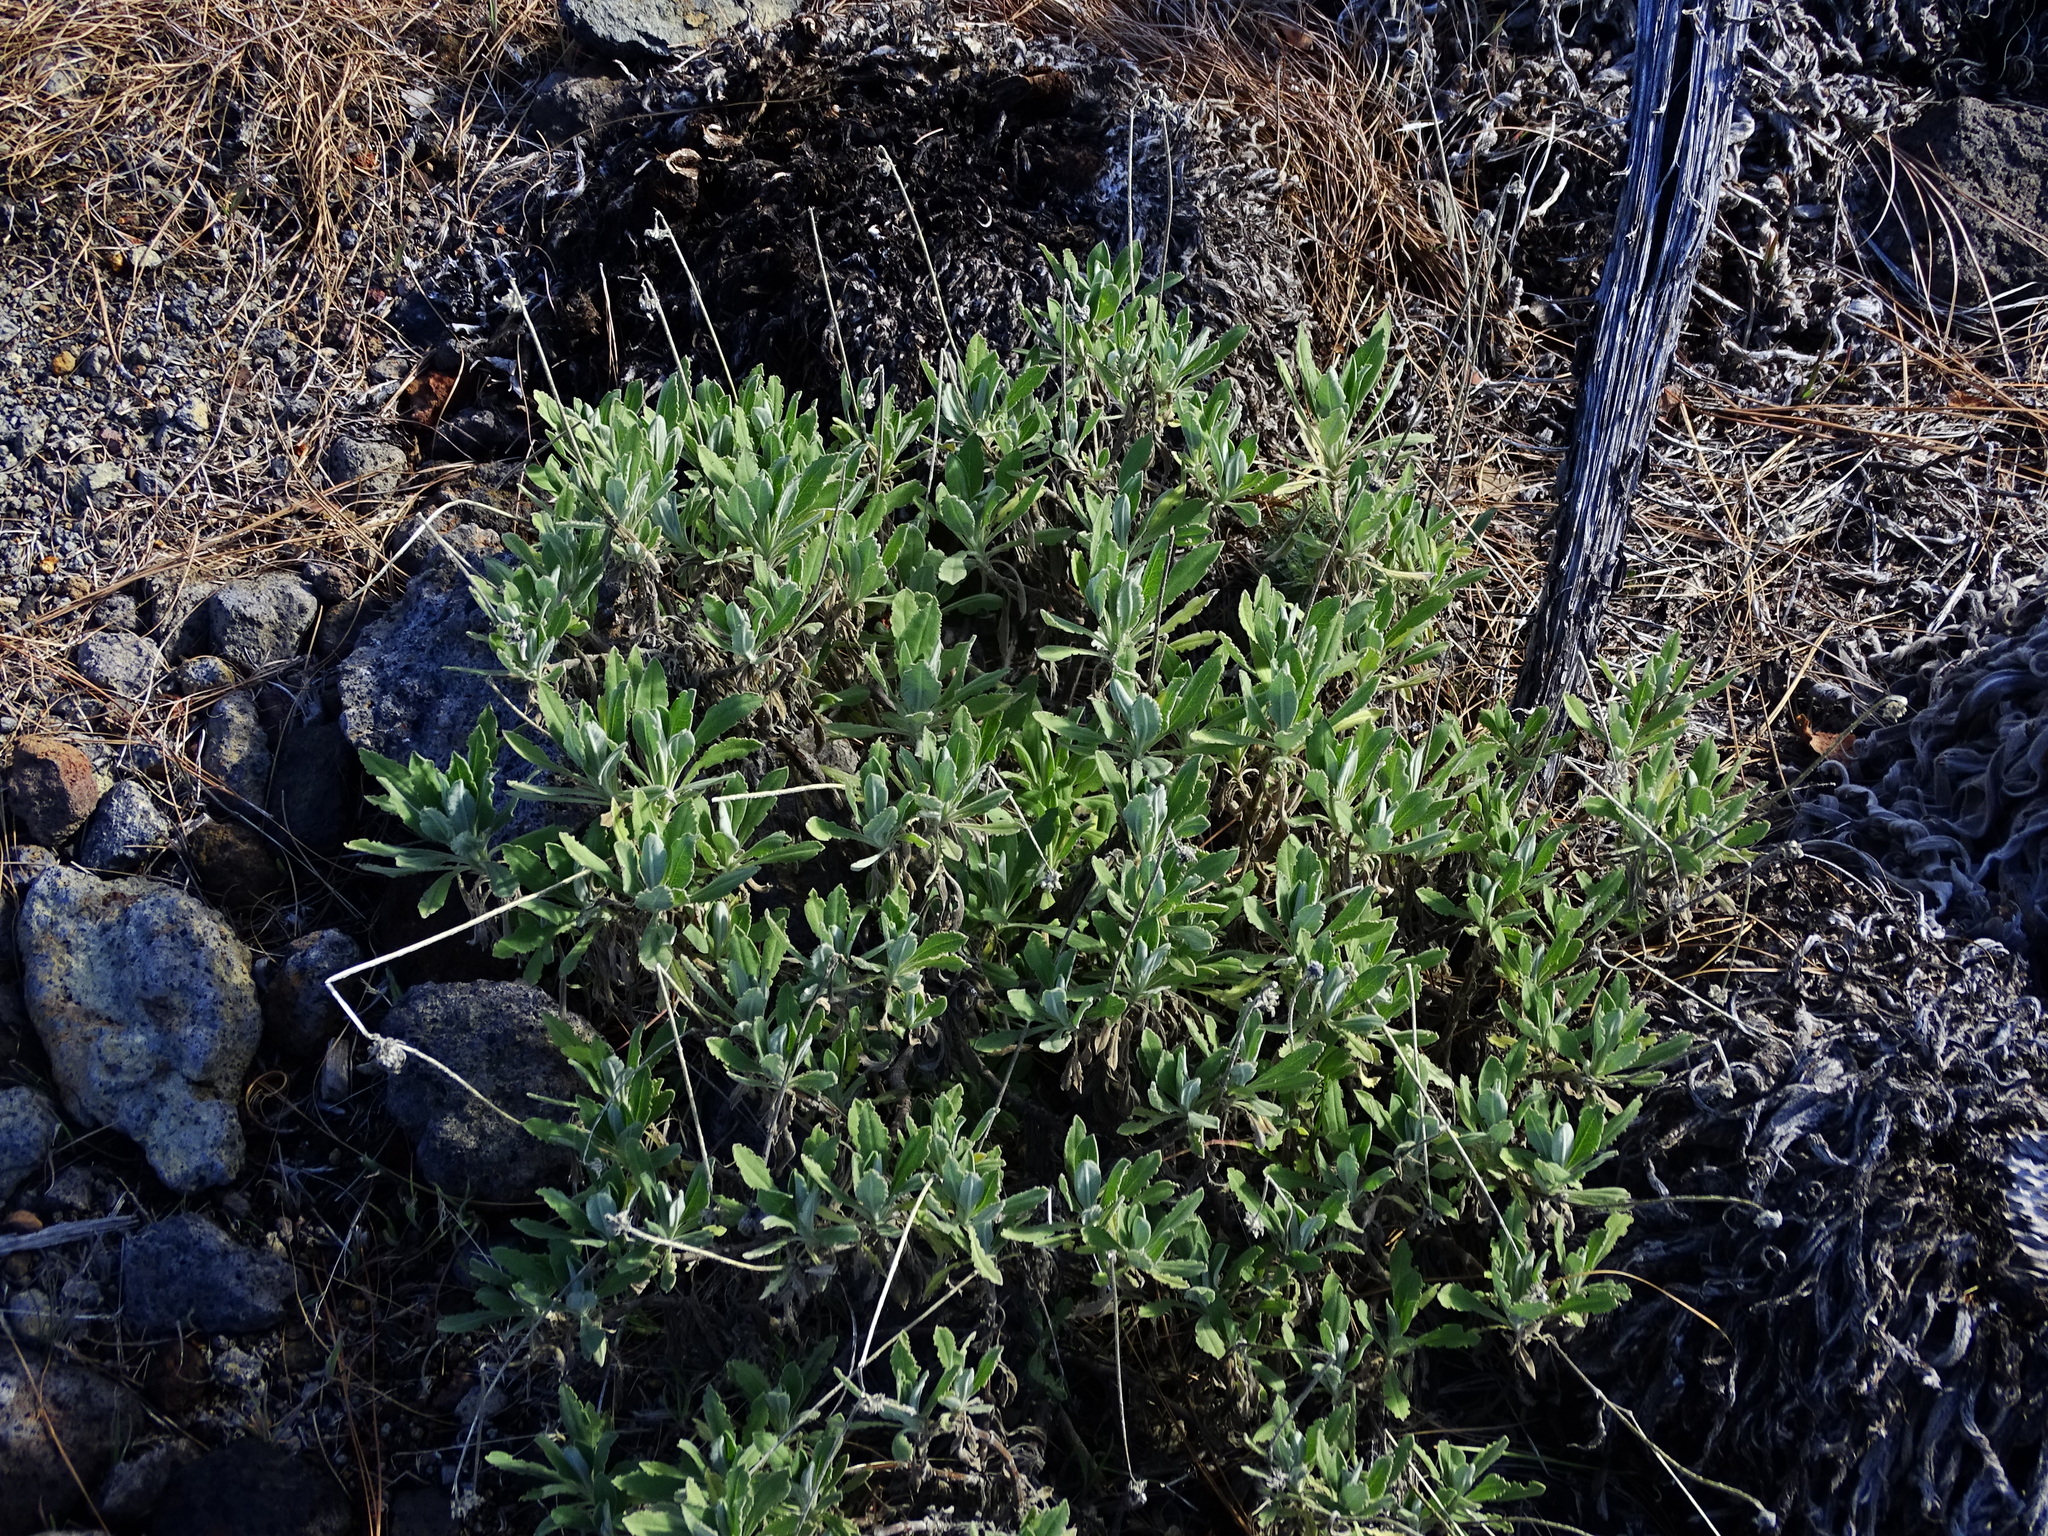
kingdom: Plantae
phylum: Tracheophyta
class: Magnoliopsida
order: Dipsacales
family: Caprifoliaceae
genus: Pterocephalus
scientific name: Pterocephalus porphyranthus
